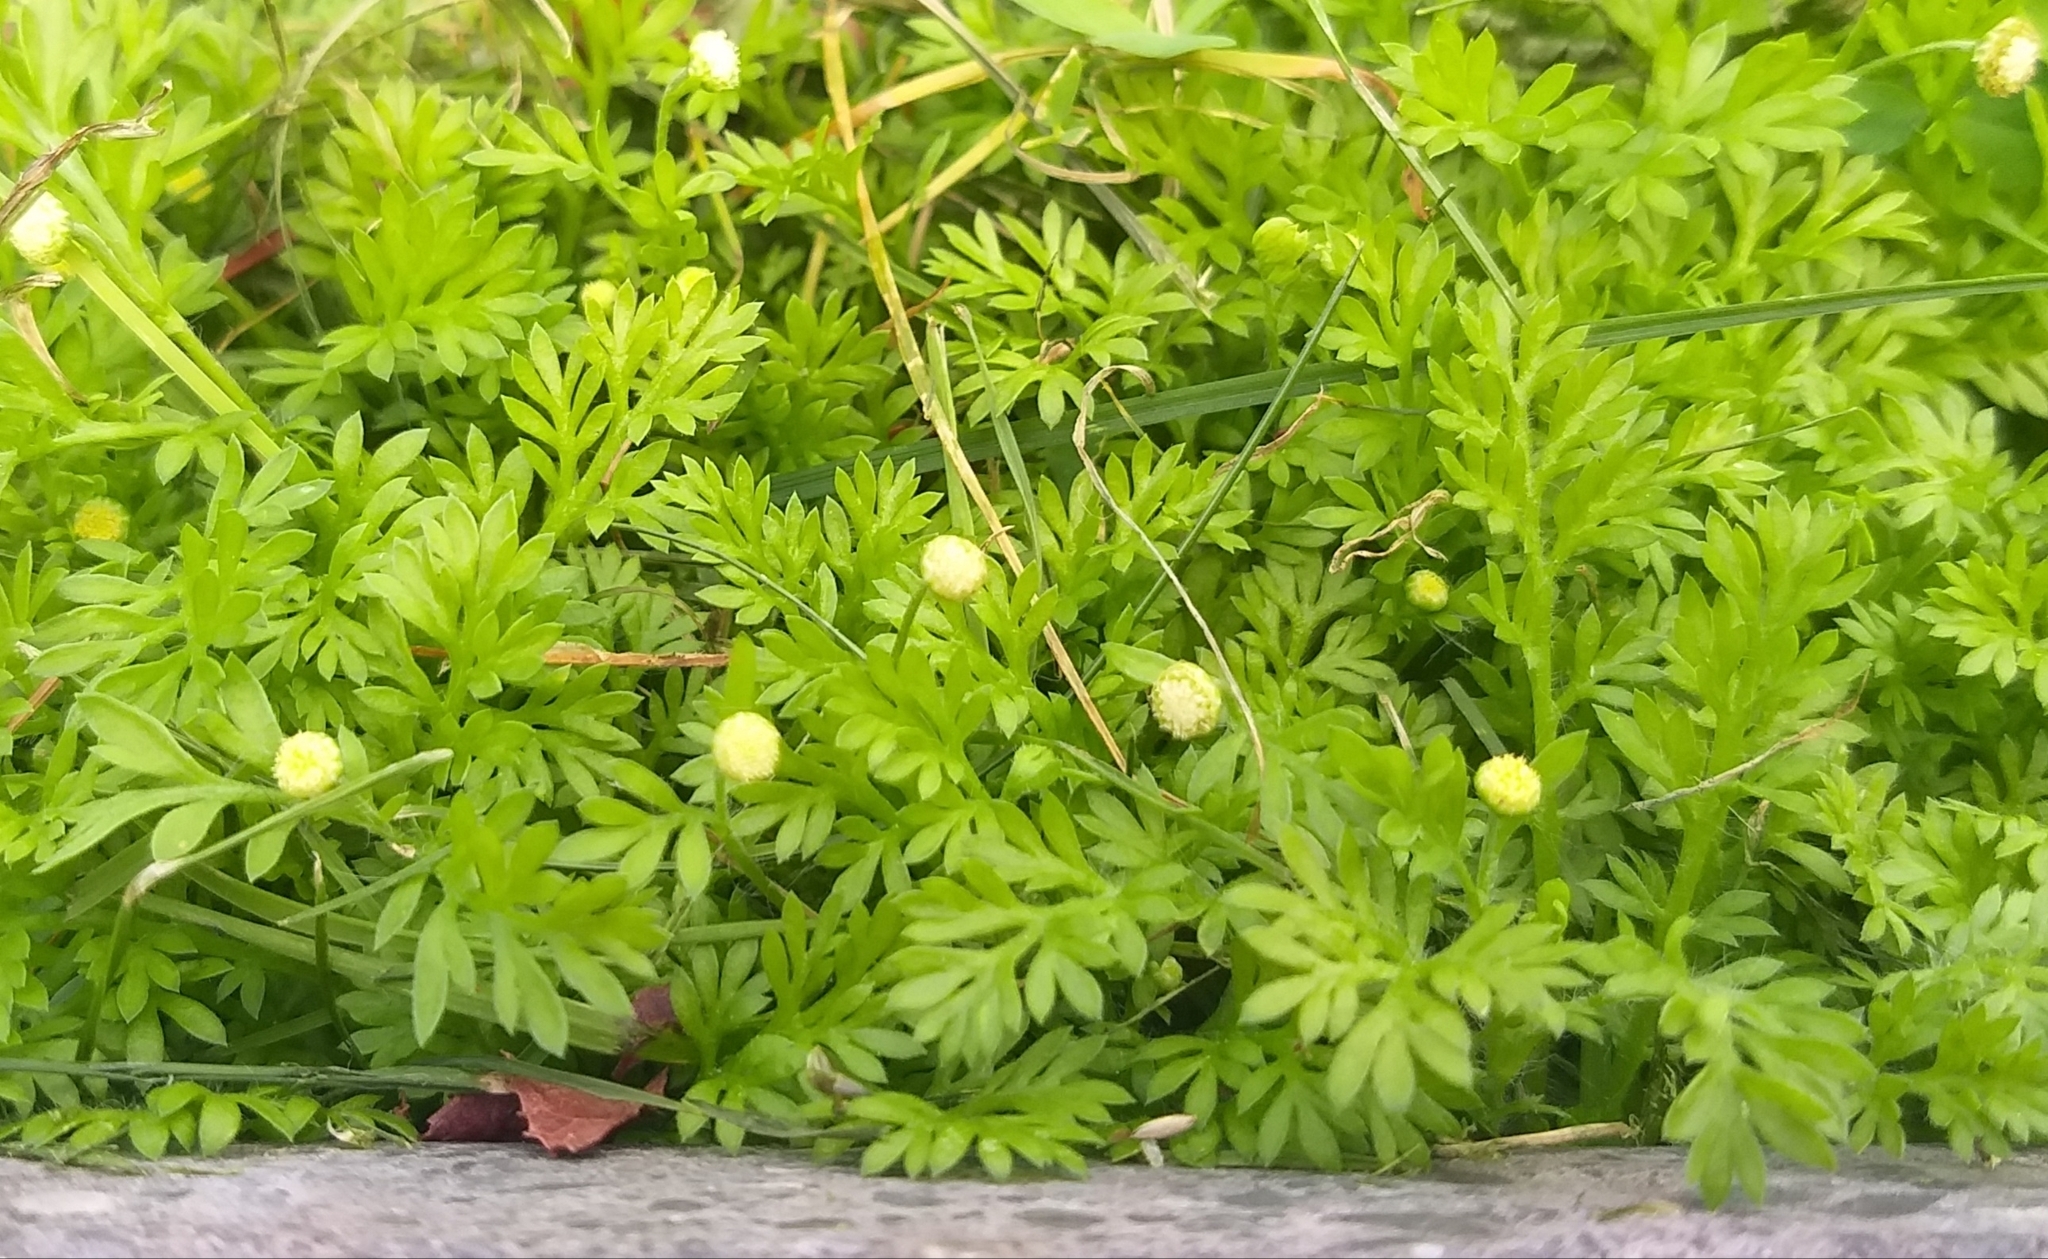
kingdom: Plantae
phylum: Tracheophyta
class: Magnoliopsida
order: Asterales
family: Asteraceae
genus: Cotula
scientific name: Cotula australis
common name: Australian waterbuttons
